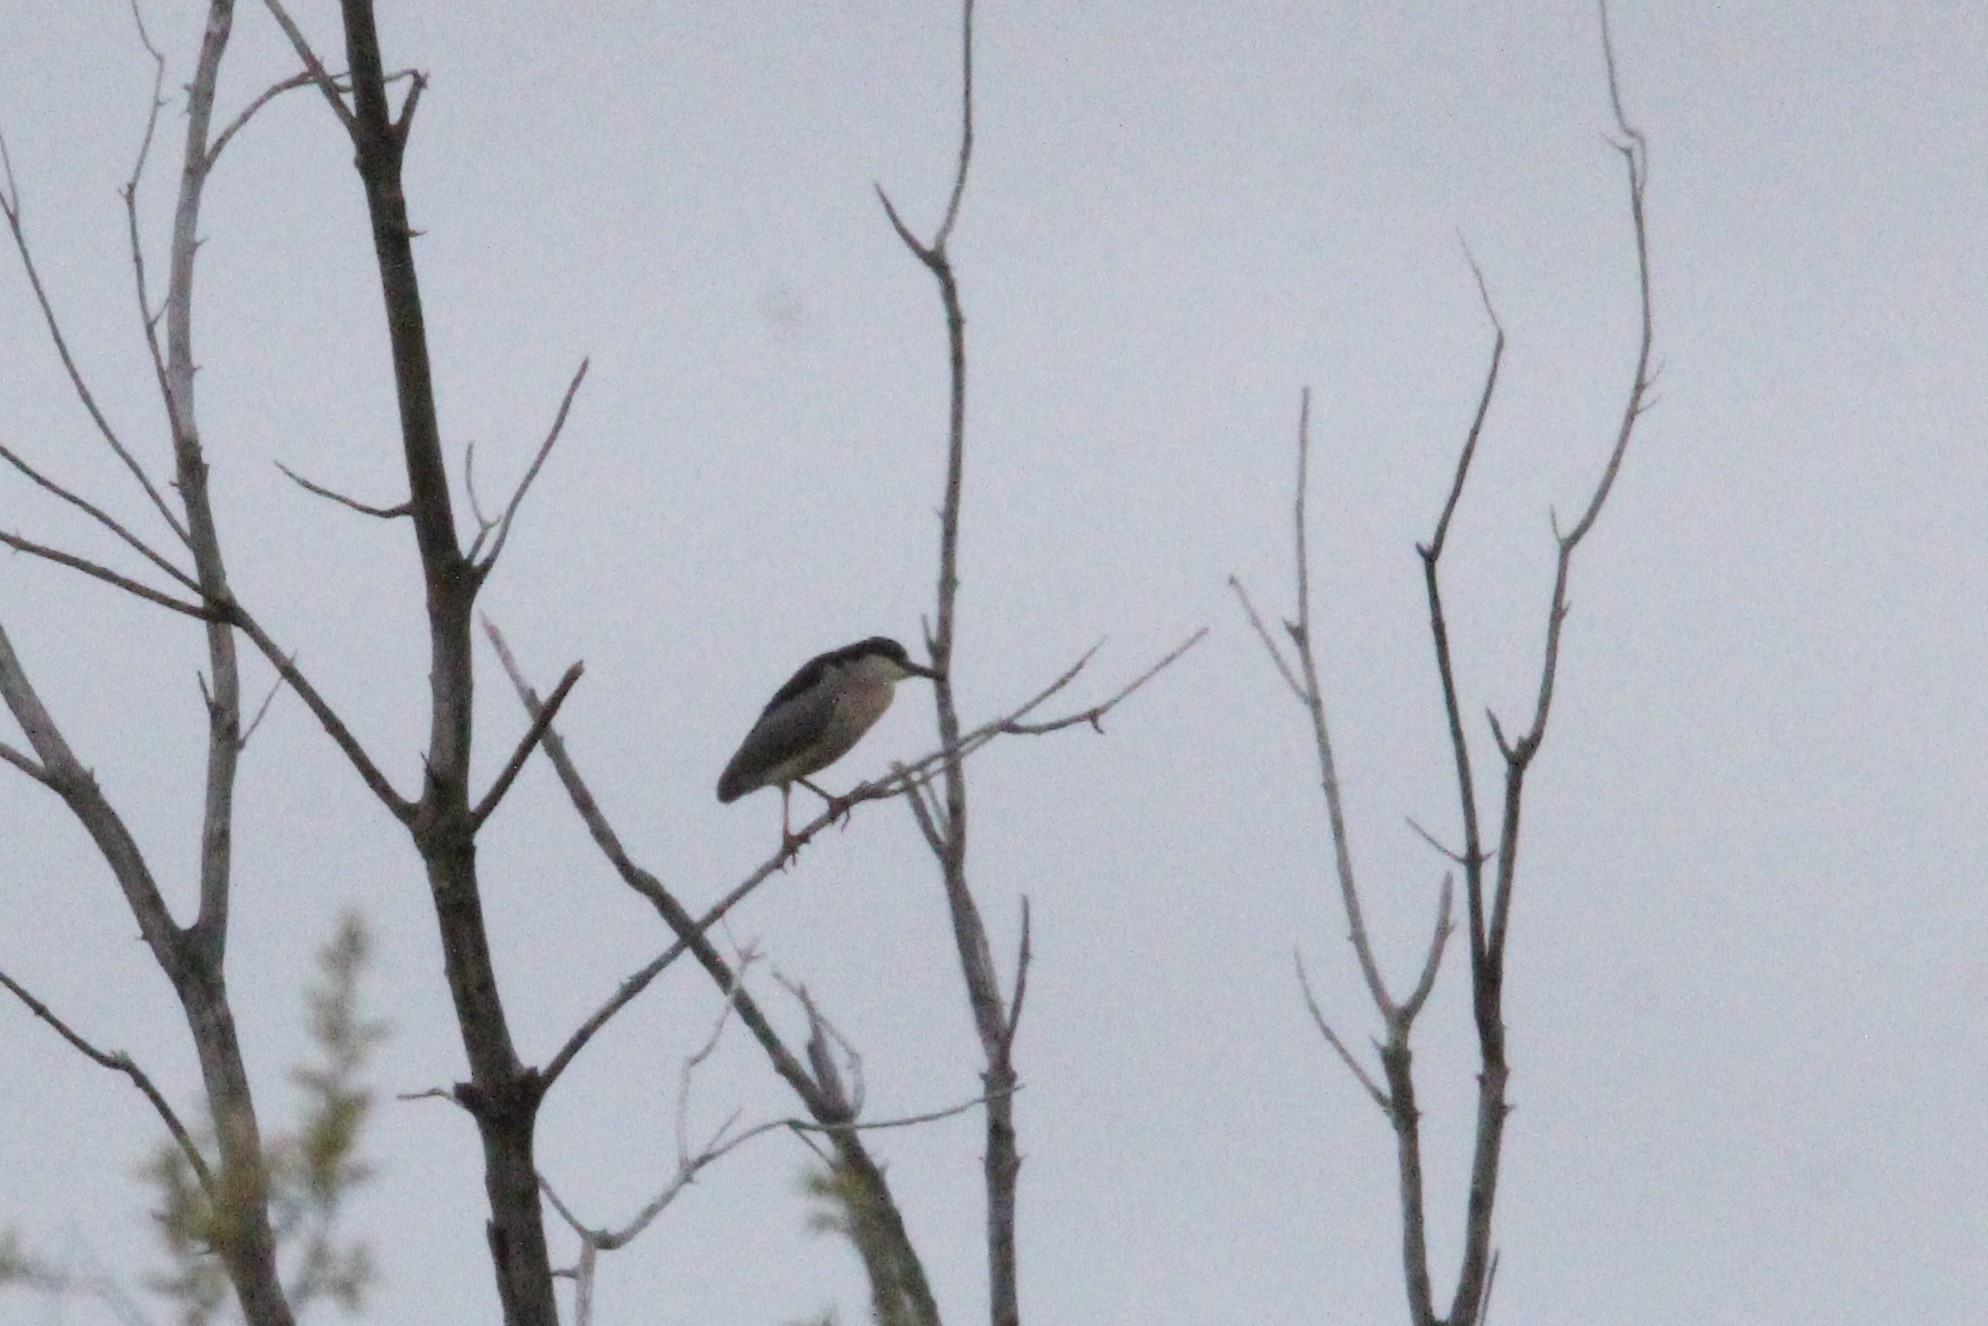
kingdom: Animalia
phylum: Chordata
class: Aves
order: Pelecaniformes
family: Ardeidae
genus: Nycticorax
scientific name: Nycticorax nycticorax
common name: Black-crowned night heron
